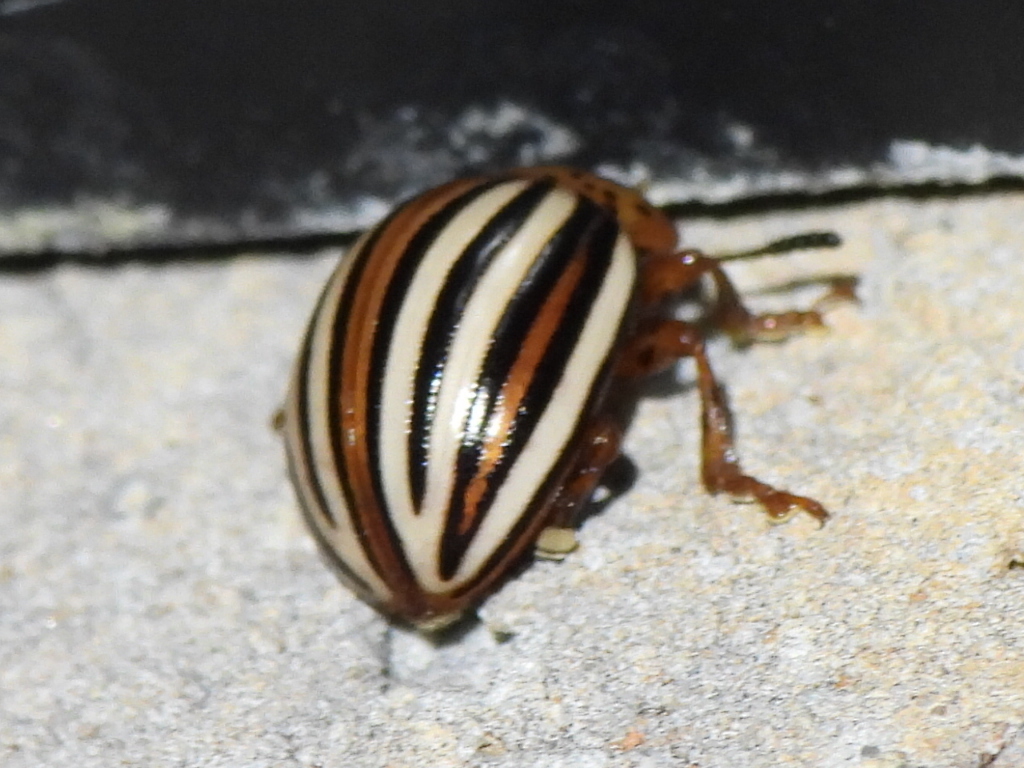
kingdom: Animalia
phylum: Arthropoda
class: Insecta
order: Coleoptera
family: Chrysomelidae
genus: Leptinotarsa
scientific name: Leptinotarsa juncta
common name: False potato beetle
